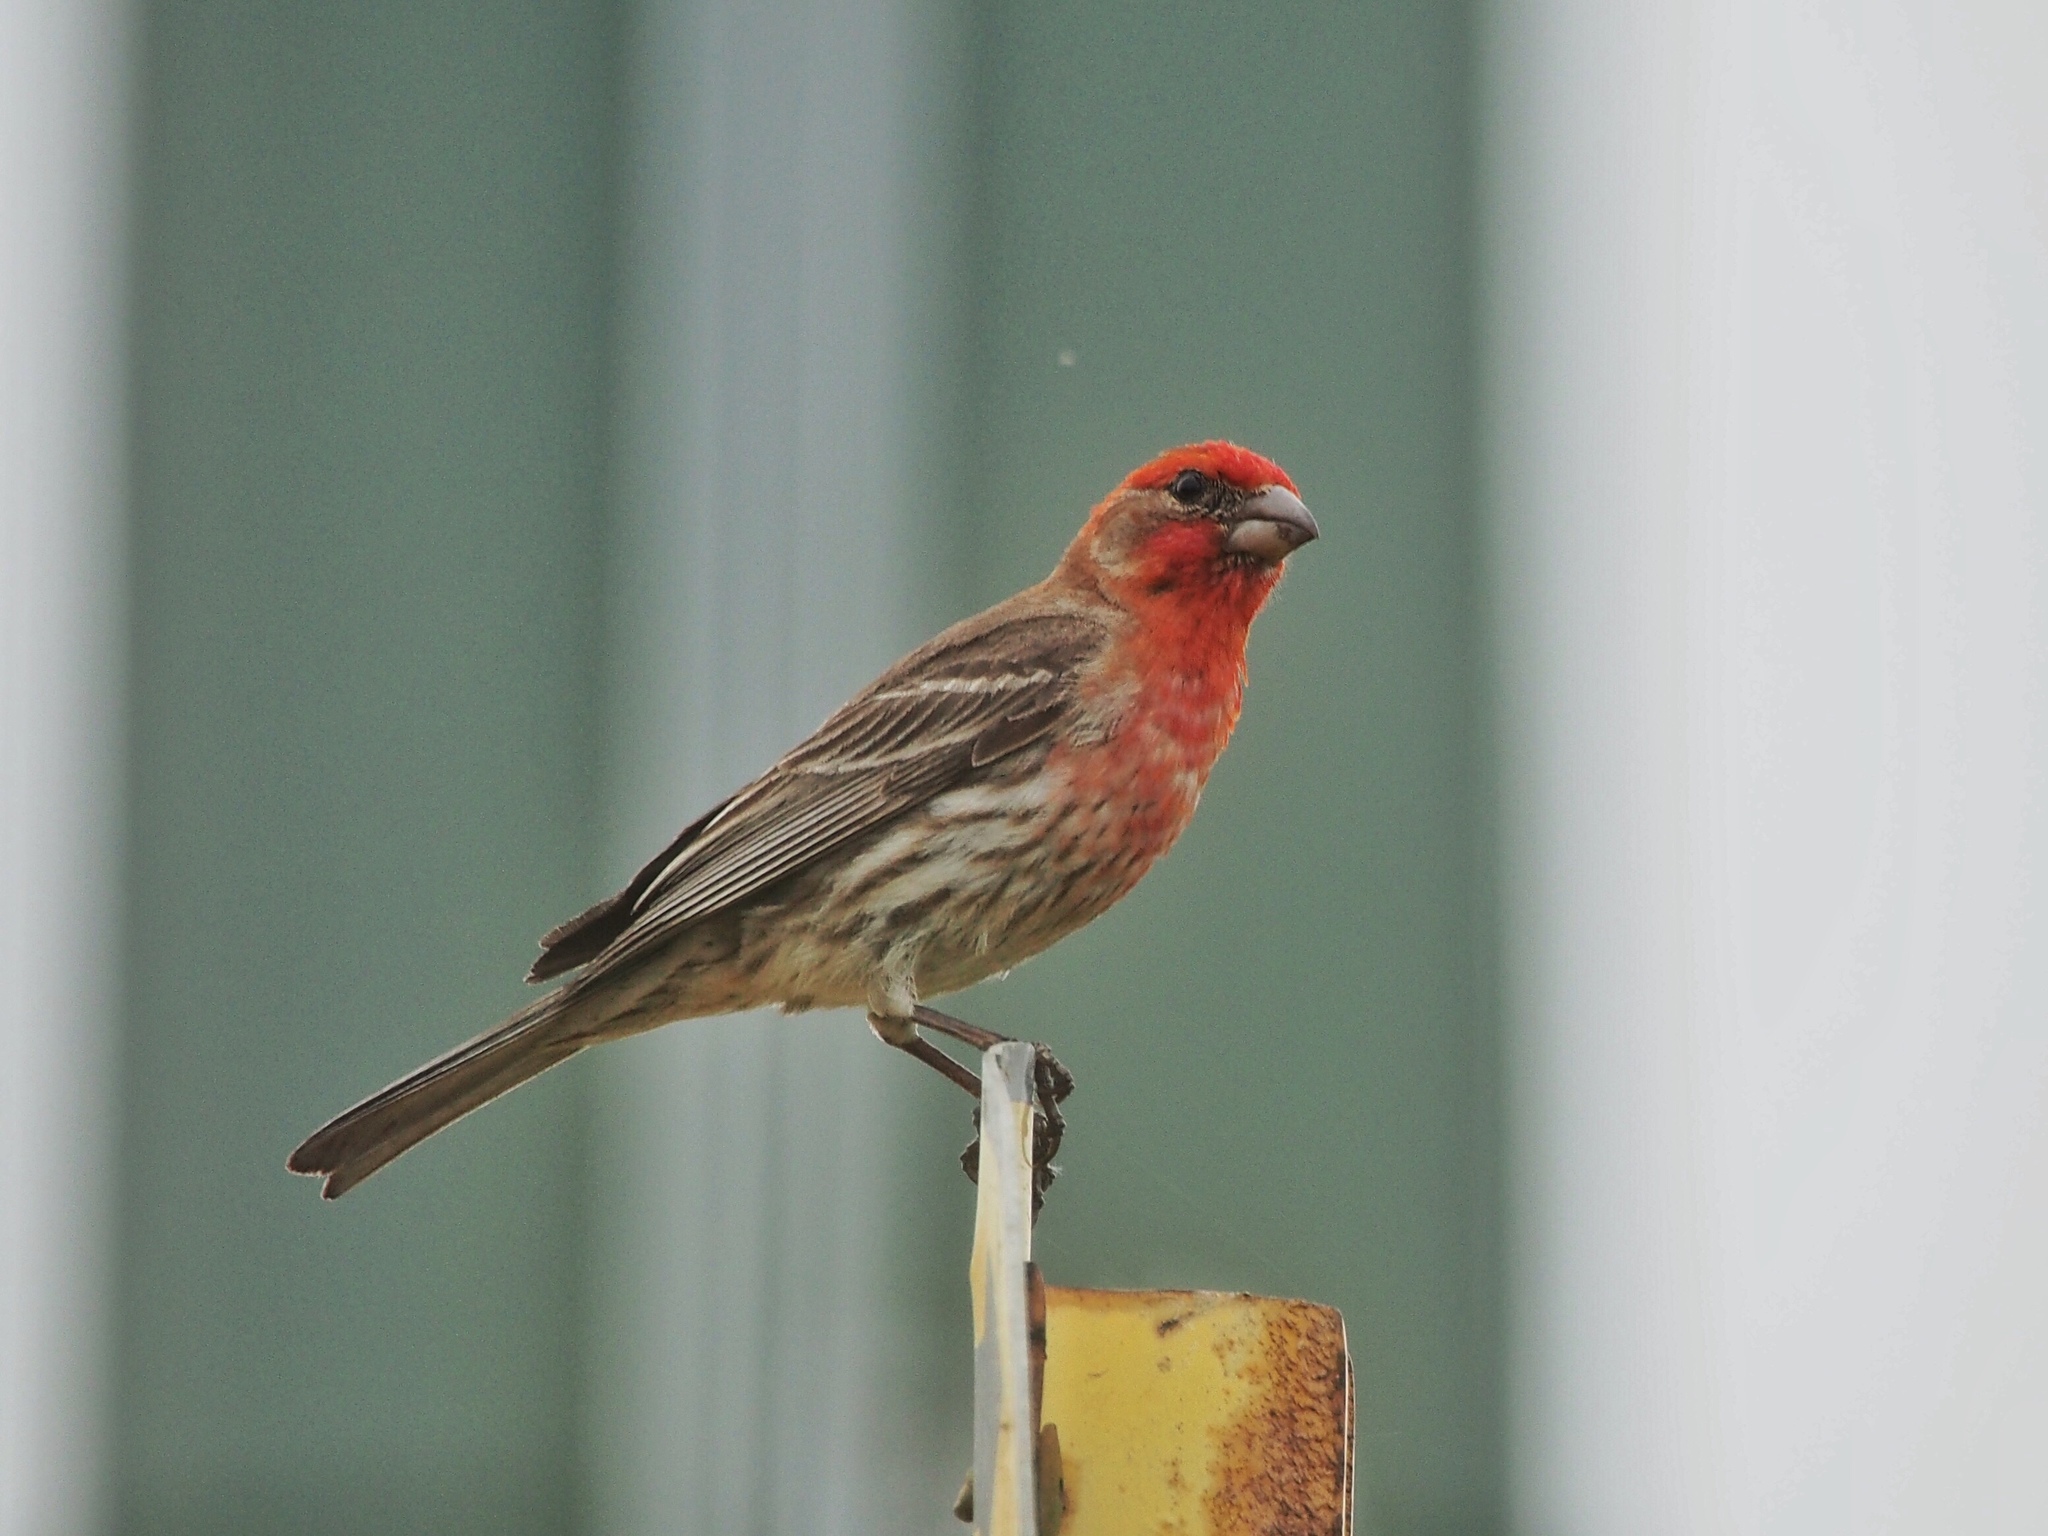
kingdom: Animalia
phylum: Chordata
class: Aves
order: Passeriformes
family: Fringillidae
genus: Haemorhous
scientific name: Haemorhous mexicanus
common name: House finch
